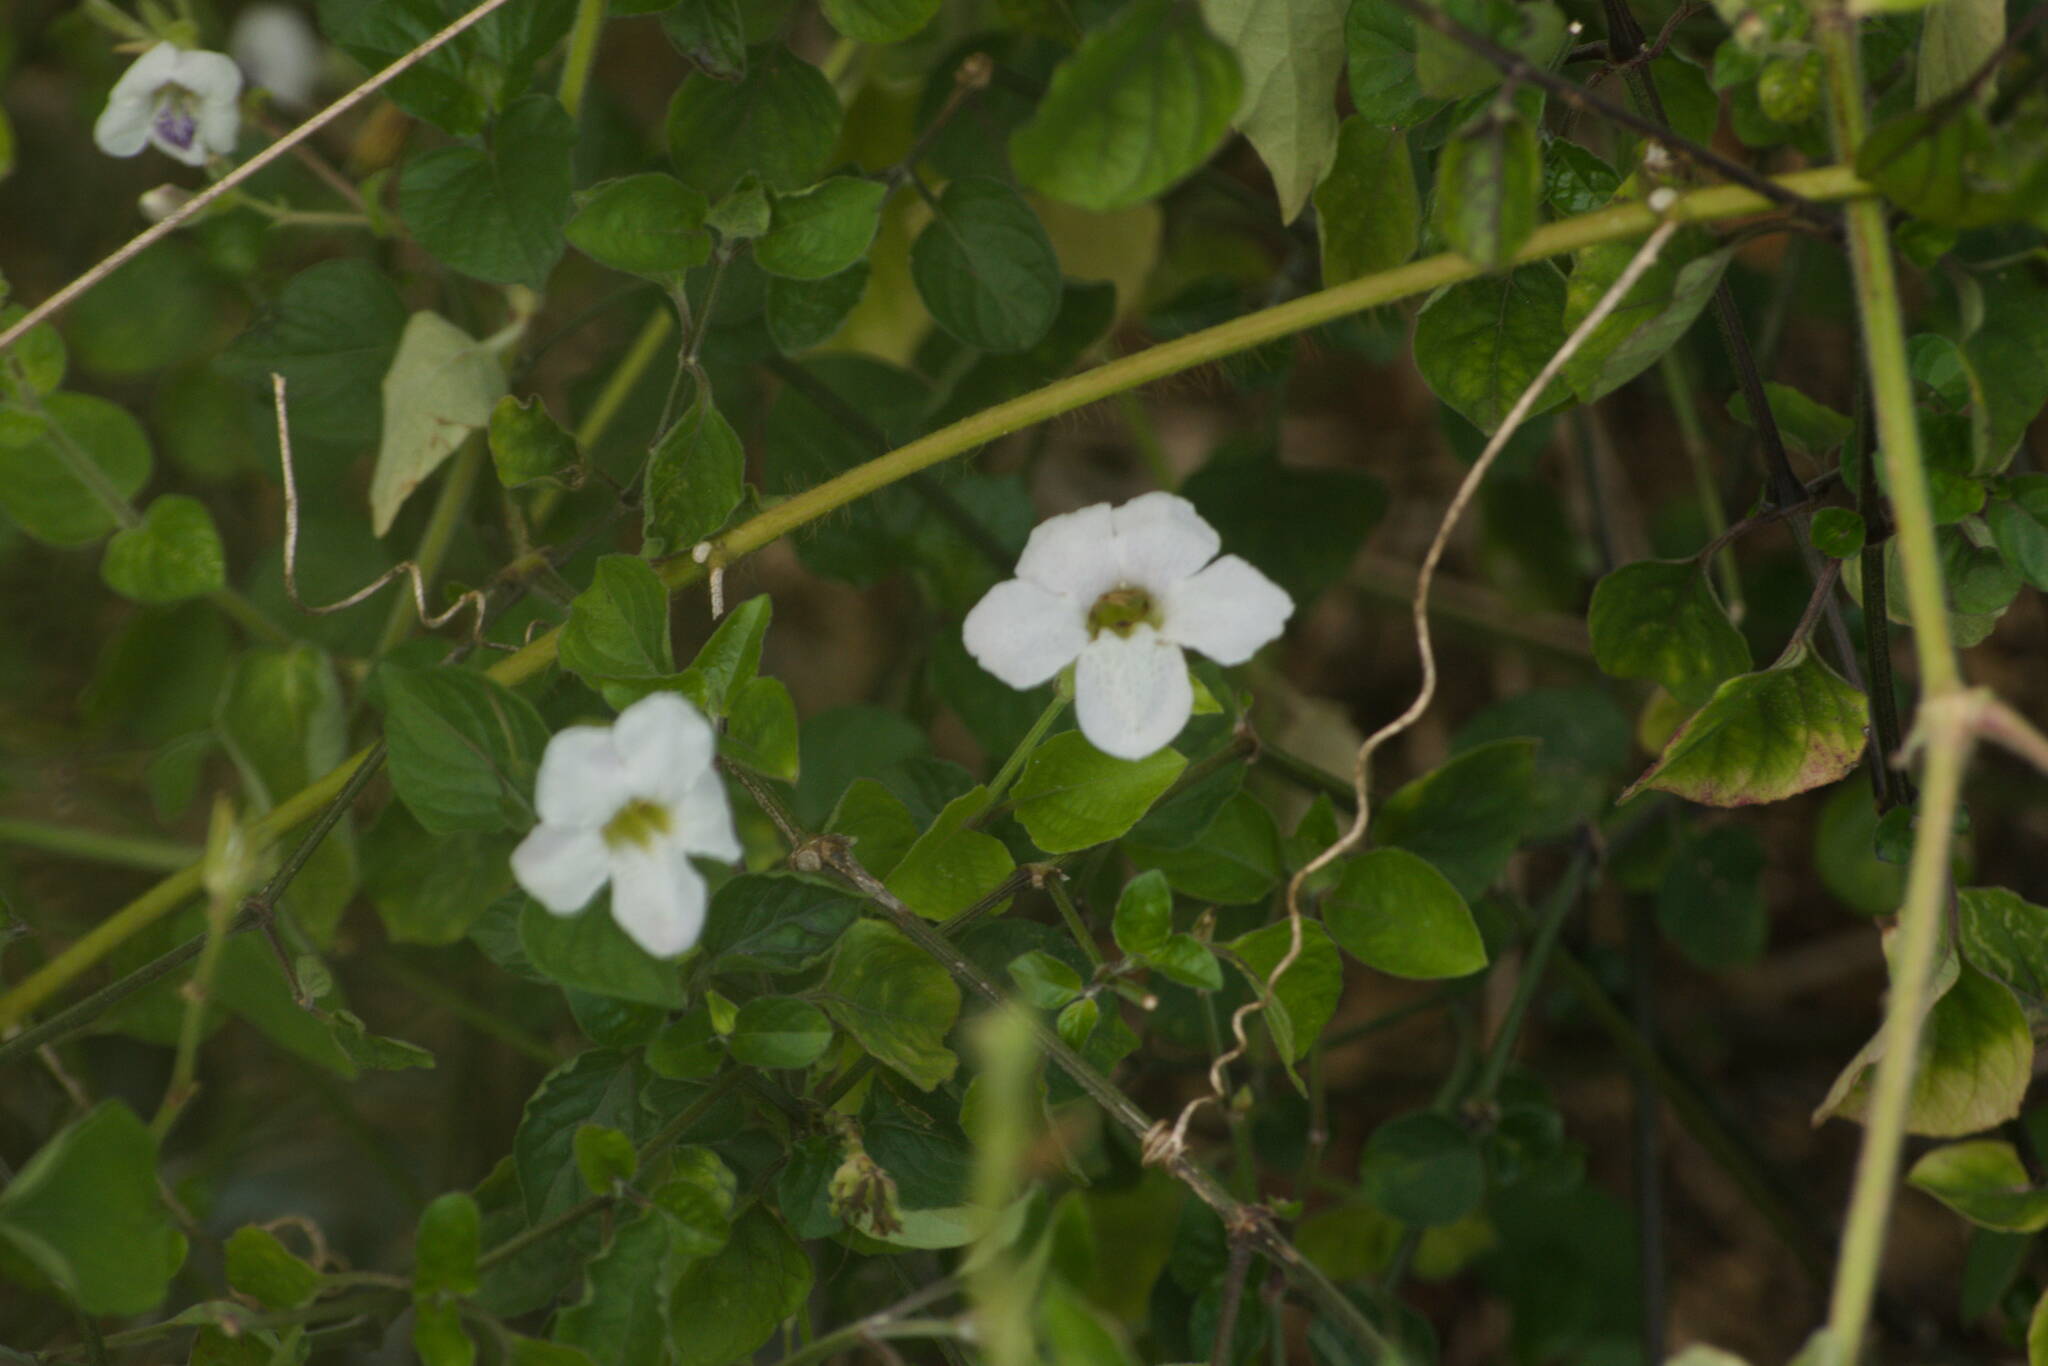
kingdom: Plantae
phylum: Tracheophyta
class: Magnoliopsida
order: Lamiales
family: Acanthaceae
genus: Asystasia
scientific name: Asystasia gangetica
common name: Chinese violet
